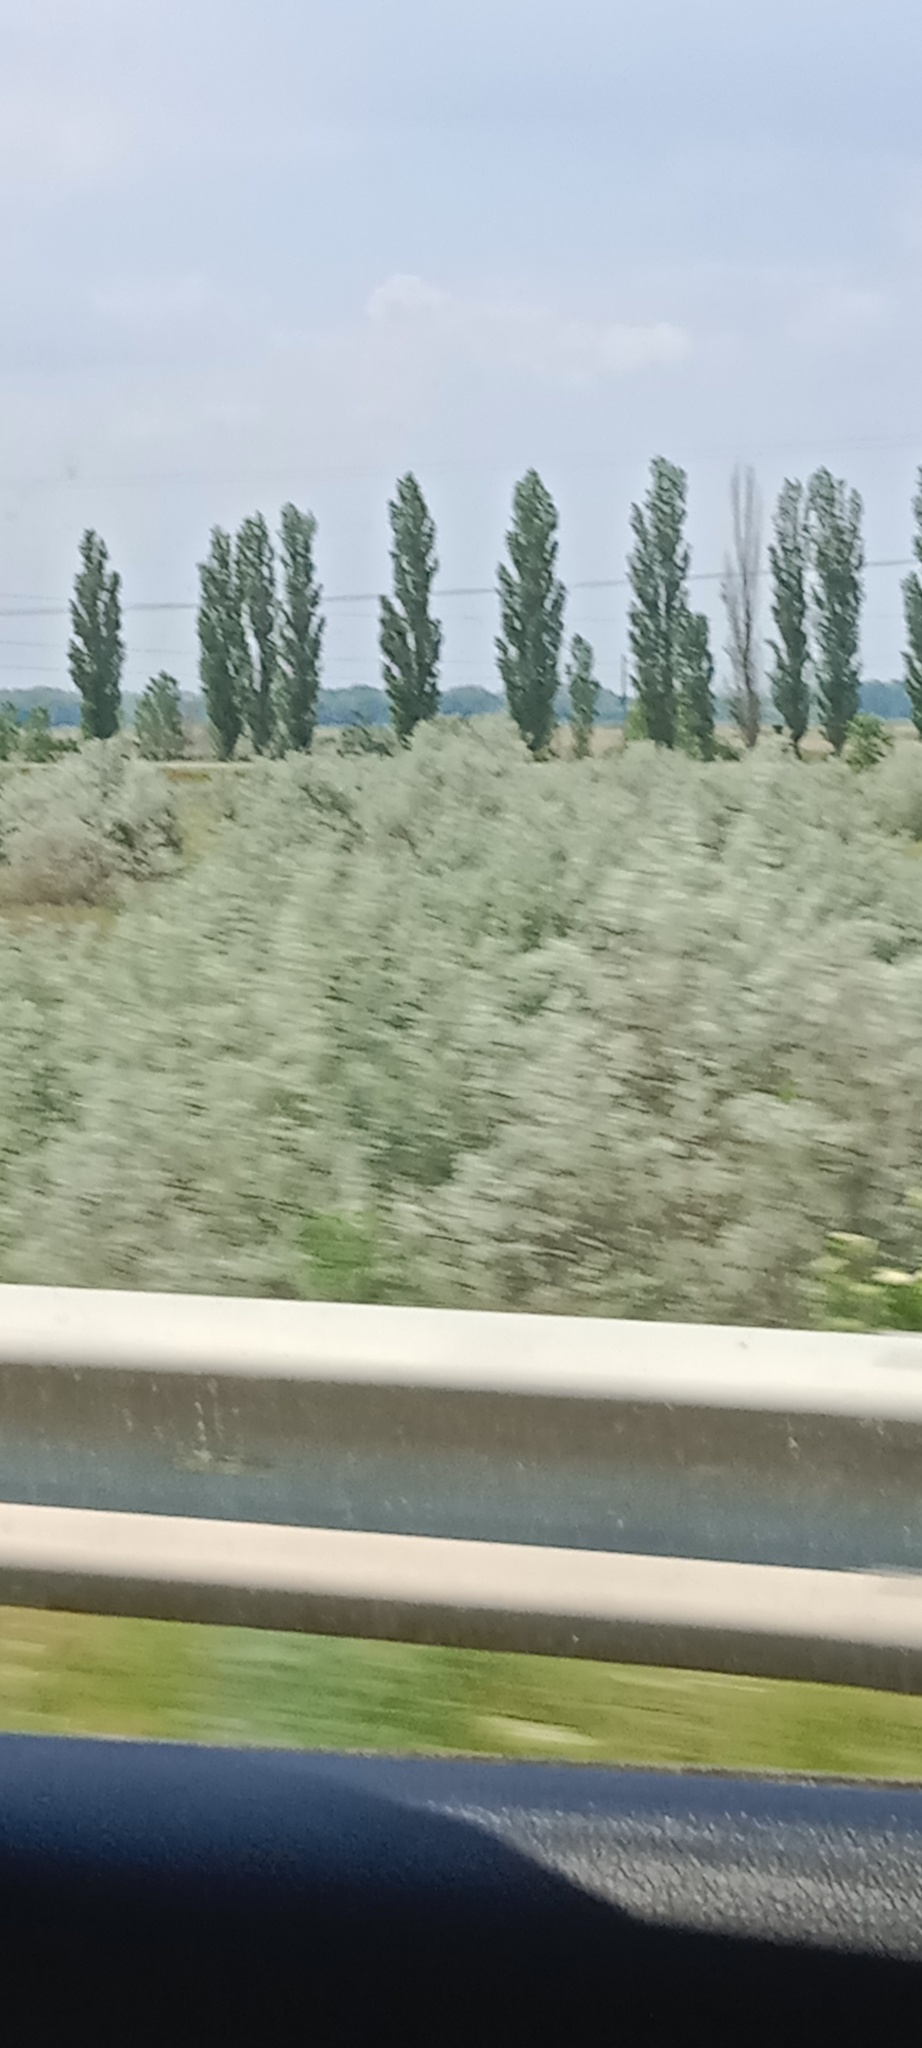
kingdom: Plantae
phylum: Tracheophyta
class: Magnoliopsida
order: Rosales
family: Elaeagnaceae
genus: Elaeagnus
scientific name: Elaeagnus angustifolia
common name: Russian olive
